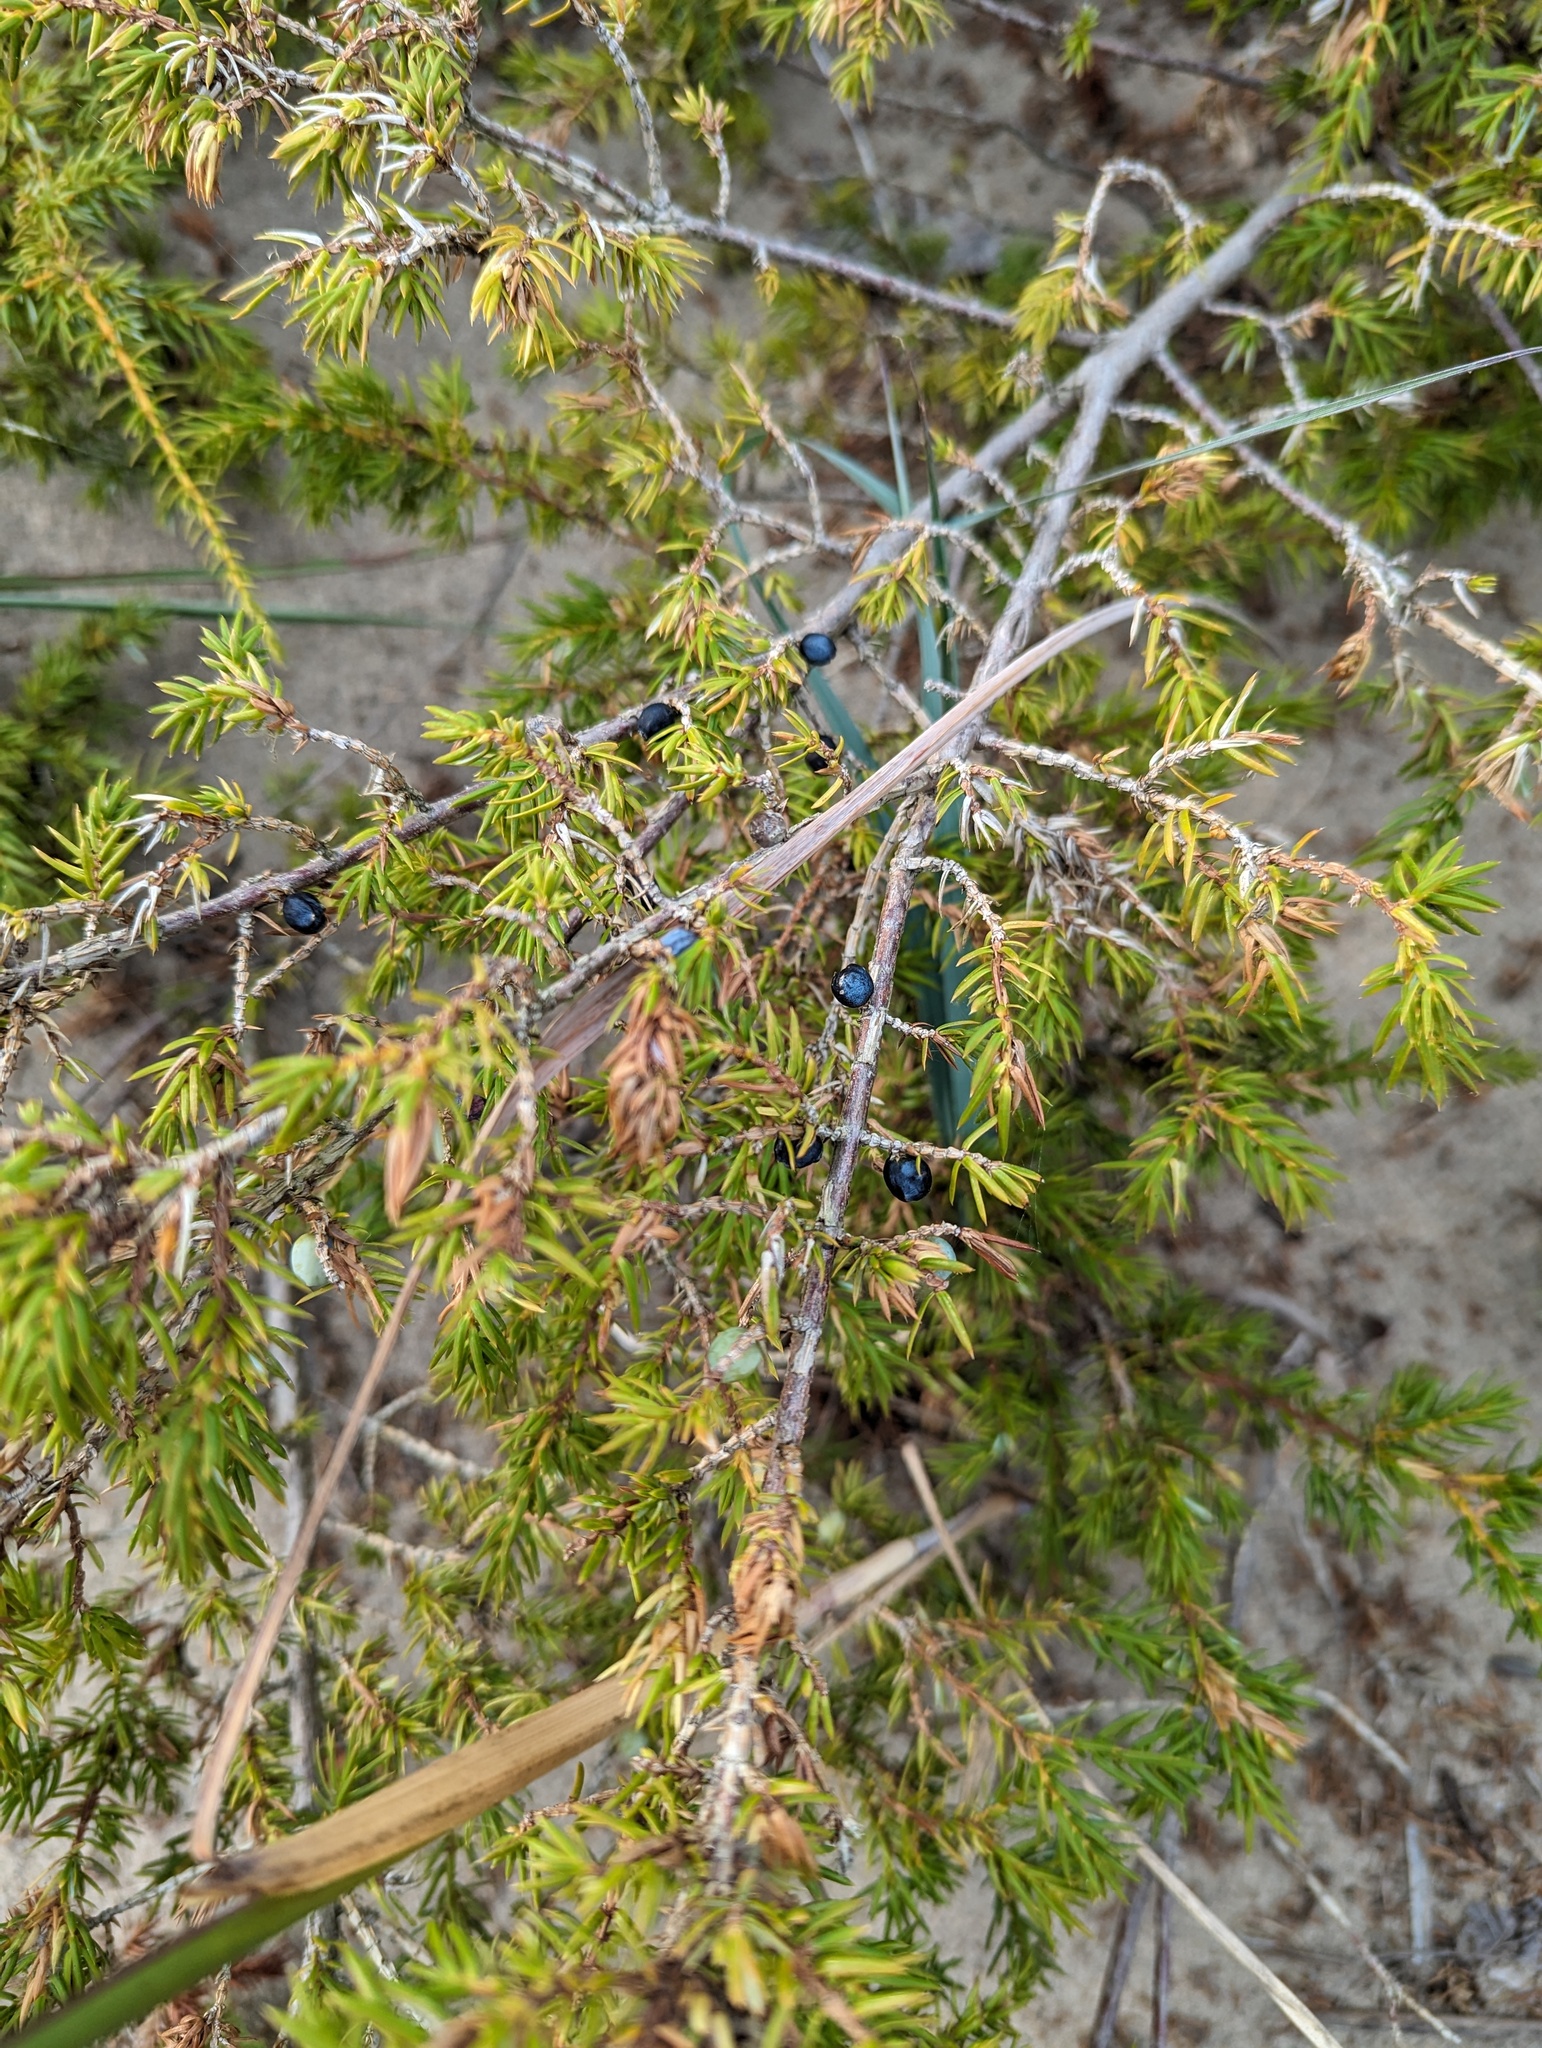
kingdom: Plantae
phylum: Tracheophyta
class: Pinopsida
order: Pinales
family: Cupressaceae
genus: Juniperus
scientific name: Juniperus communis
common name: Common juniper
